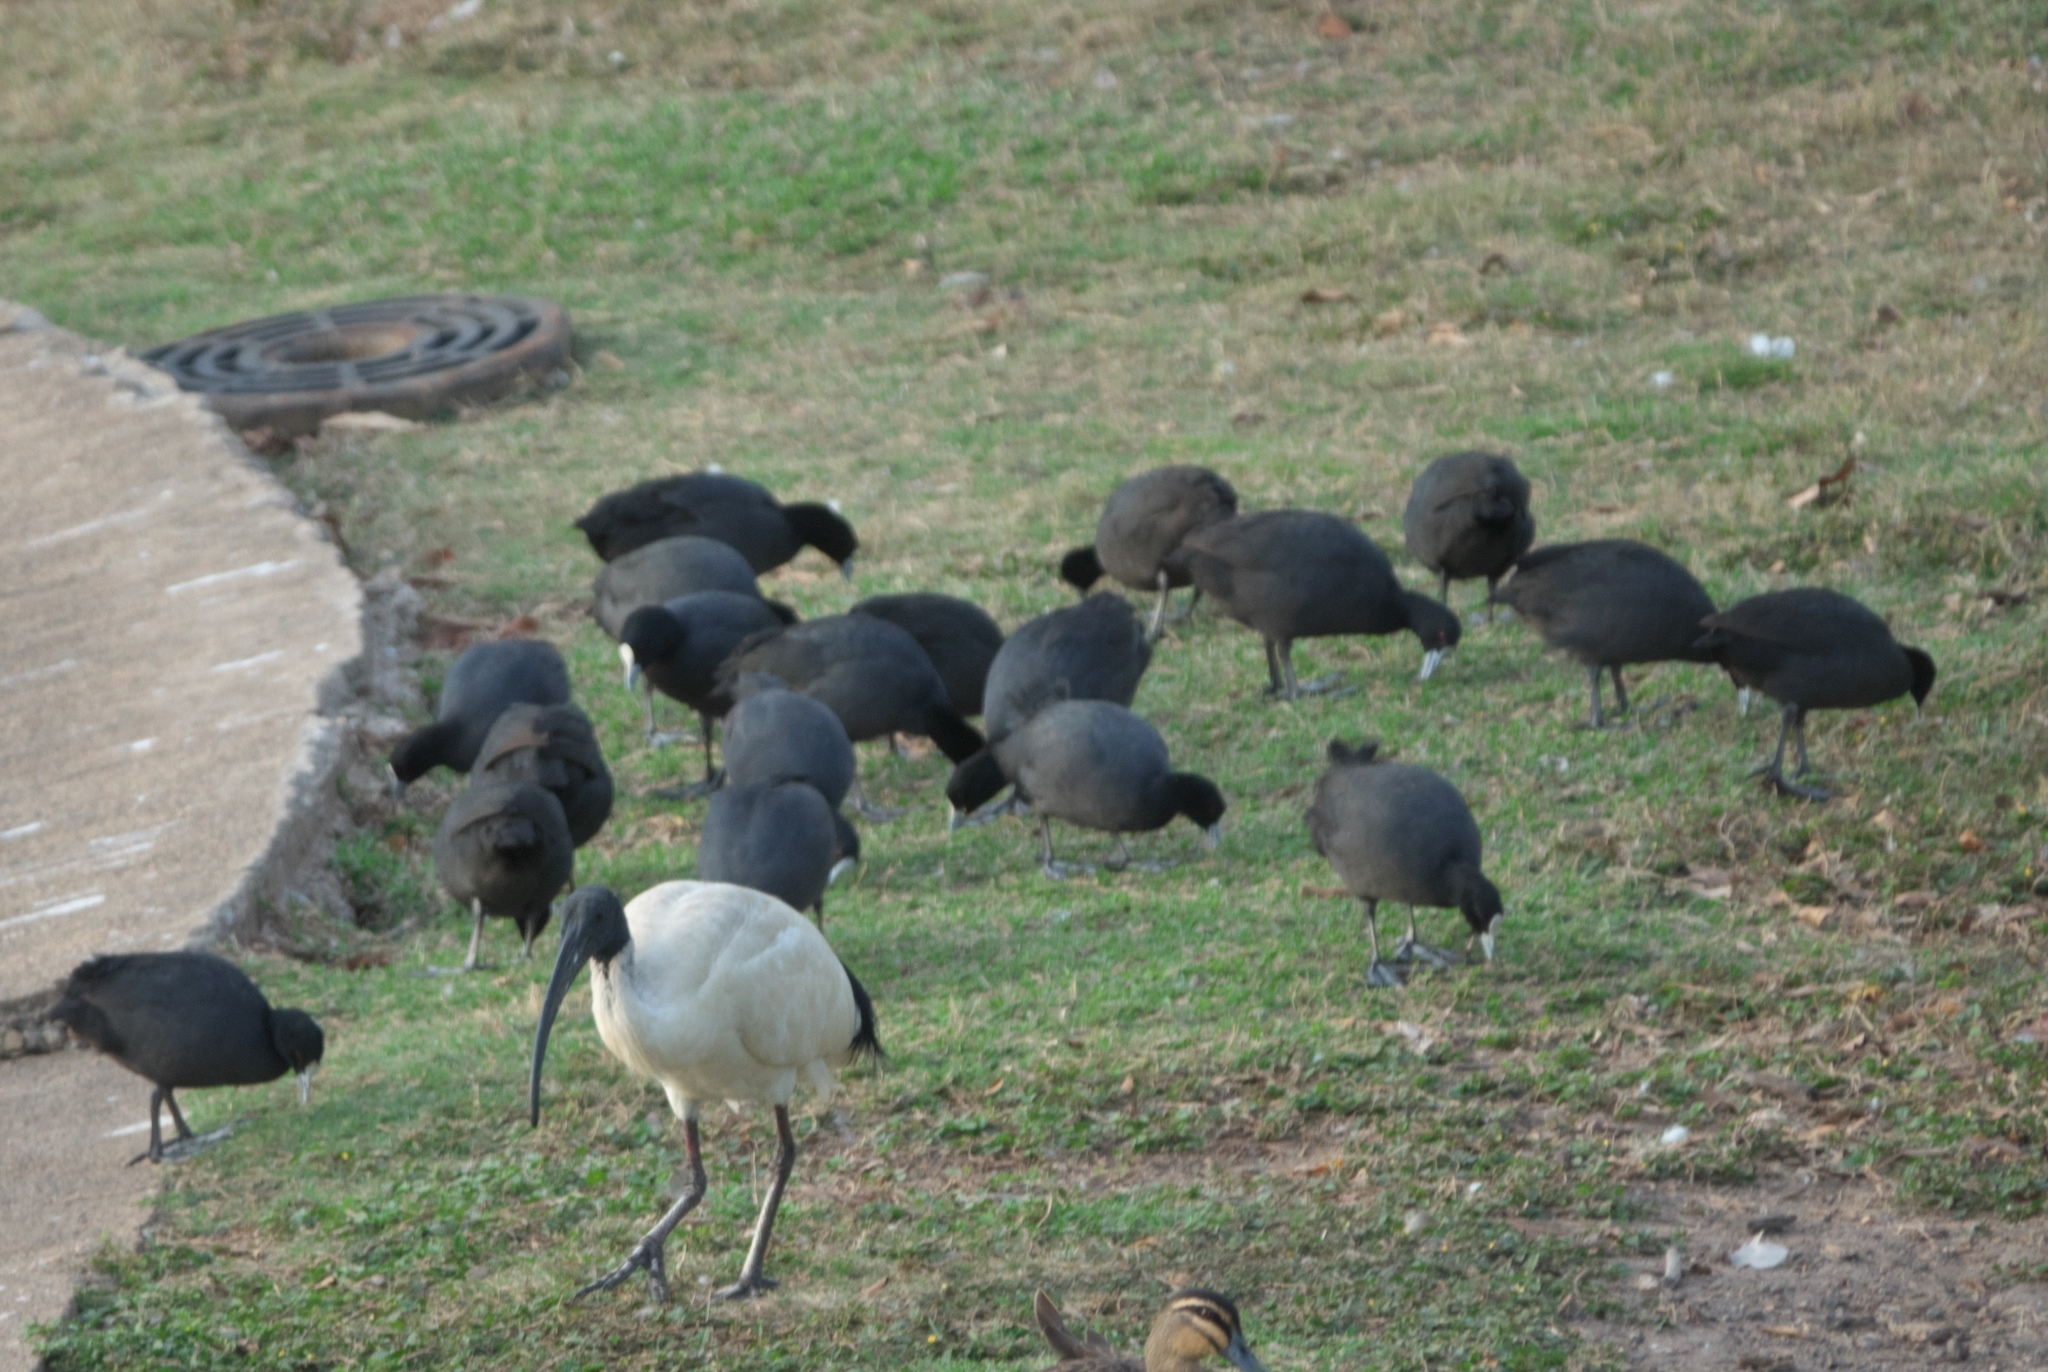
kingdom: Animalia
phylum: Chordata
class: Aves
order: Gruiformes
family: Rallidae
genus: Fulica
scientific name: Fulica atra
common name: Eurasian coot
